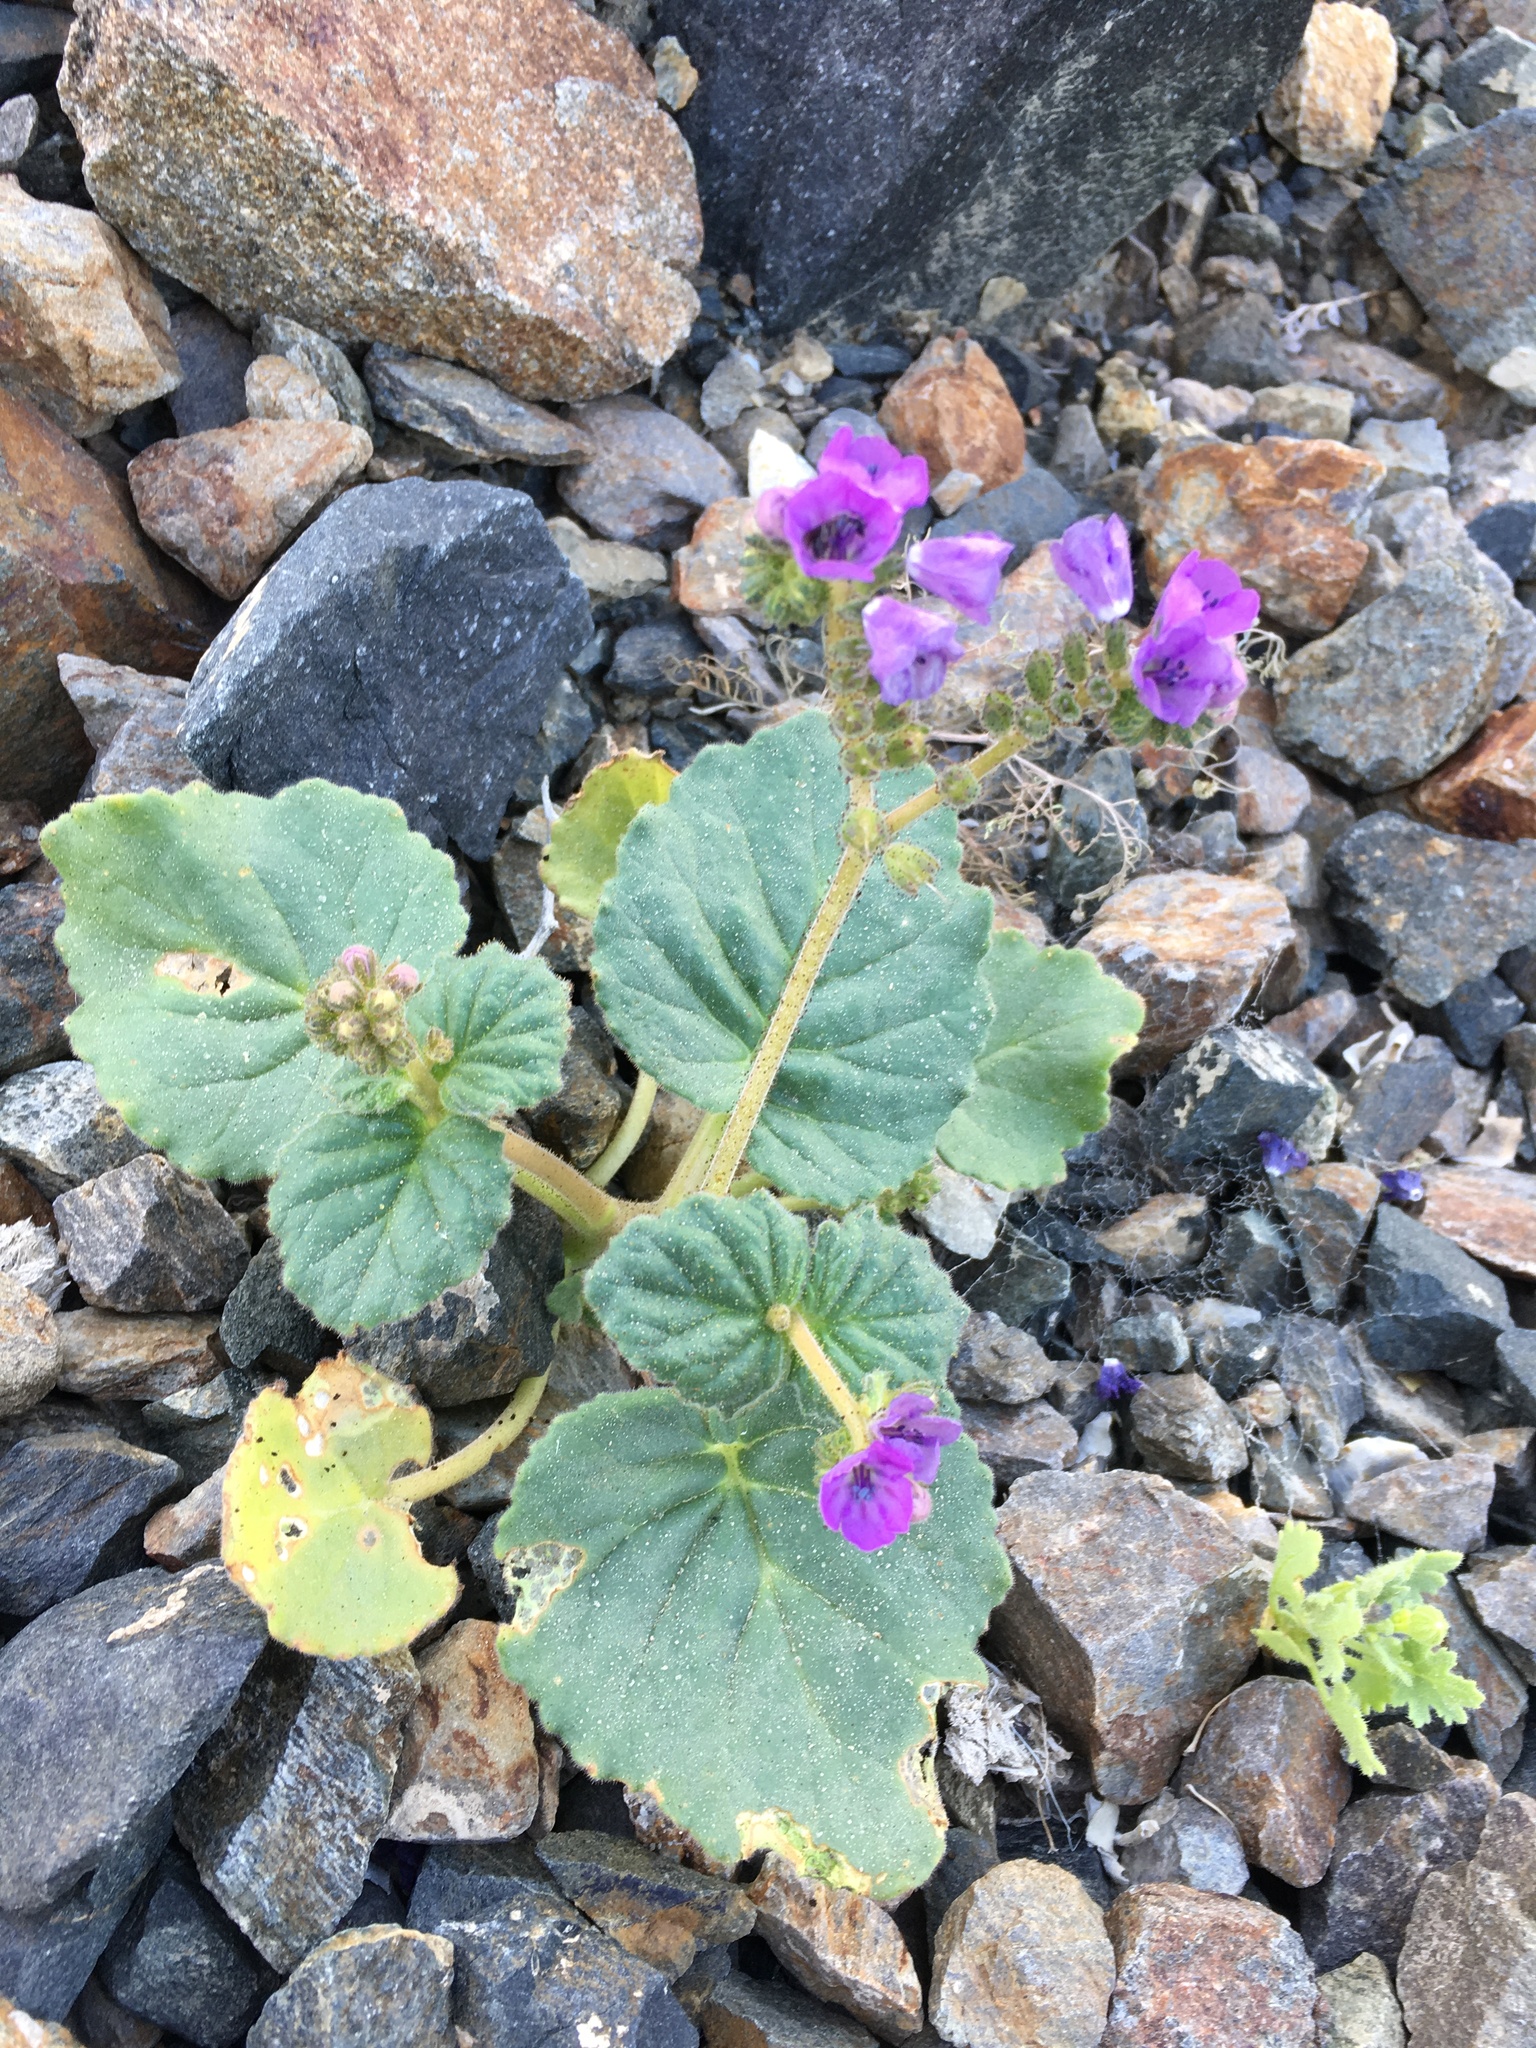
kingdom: Plantae
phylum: Tracheophyta
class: Magnoliopsida
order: Boraginales
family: Hydrophyllaceae
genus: Phacelia
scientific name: Phacelia calthifolia
